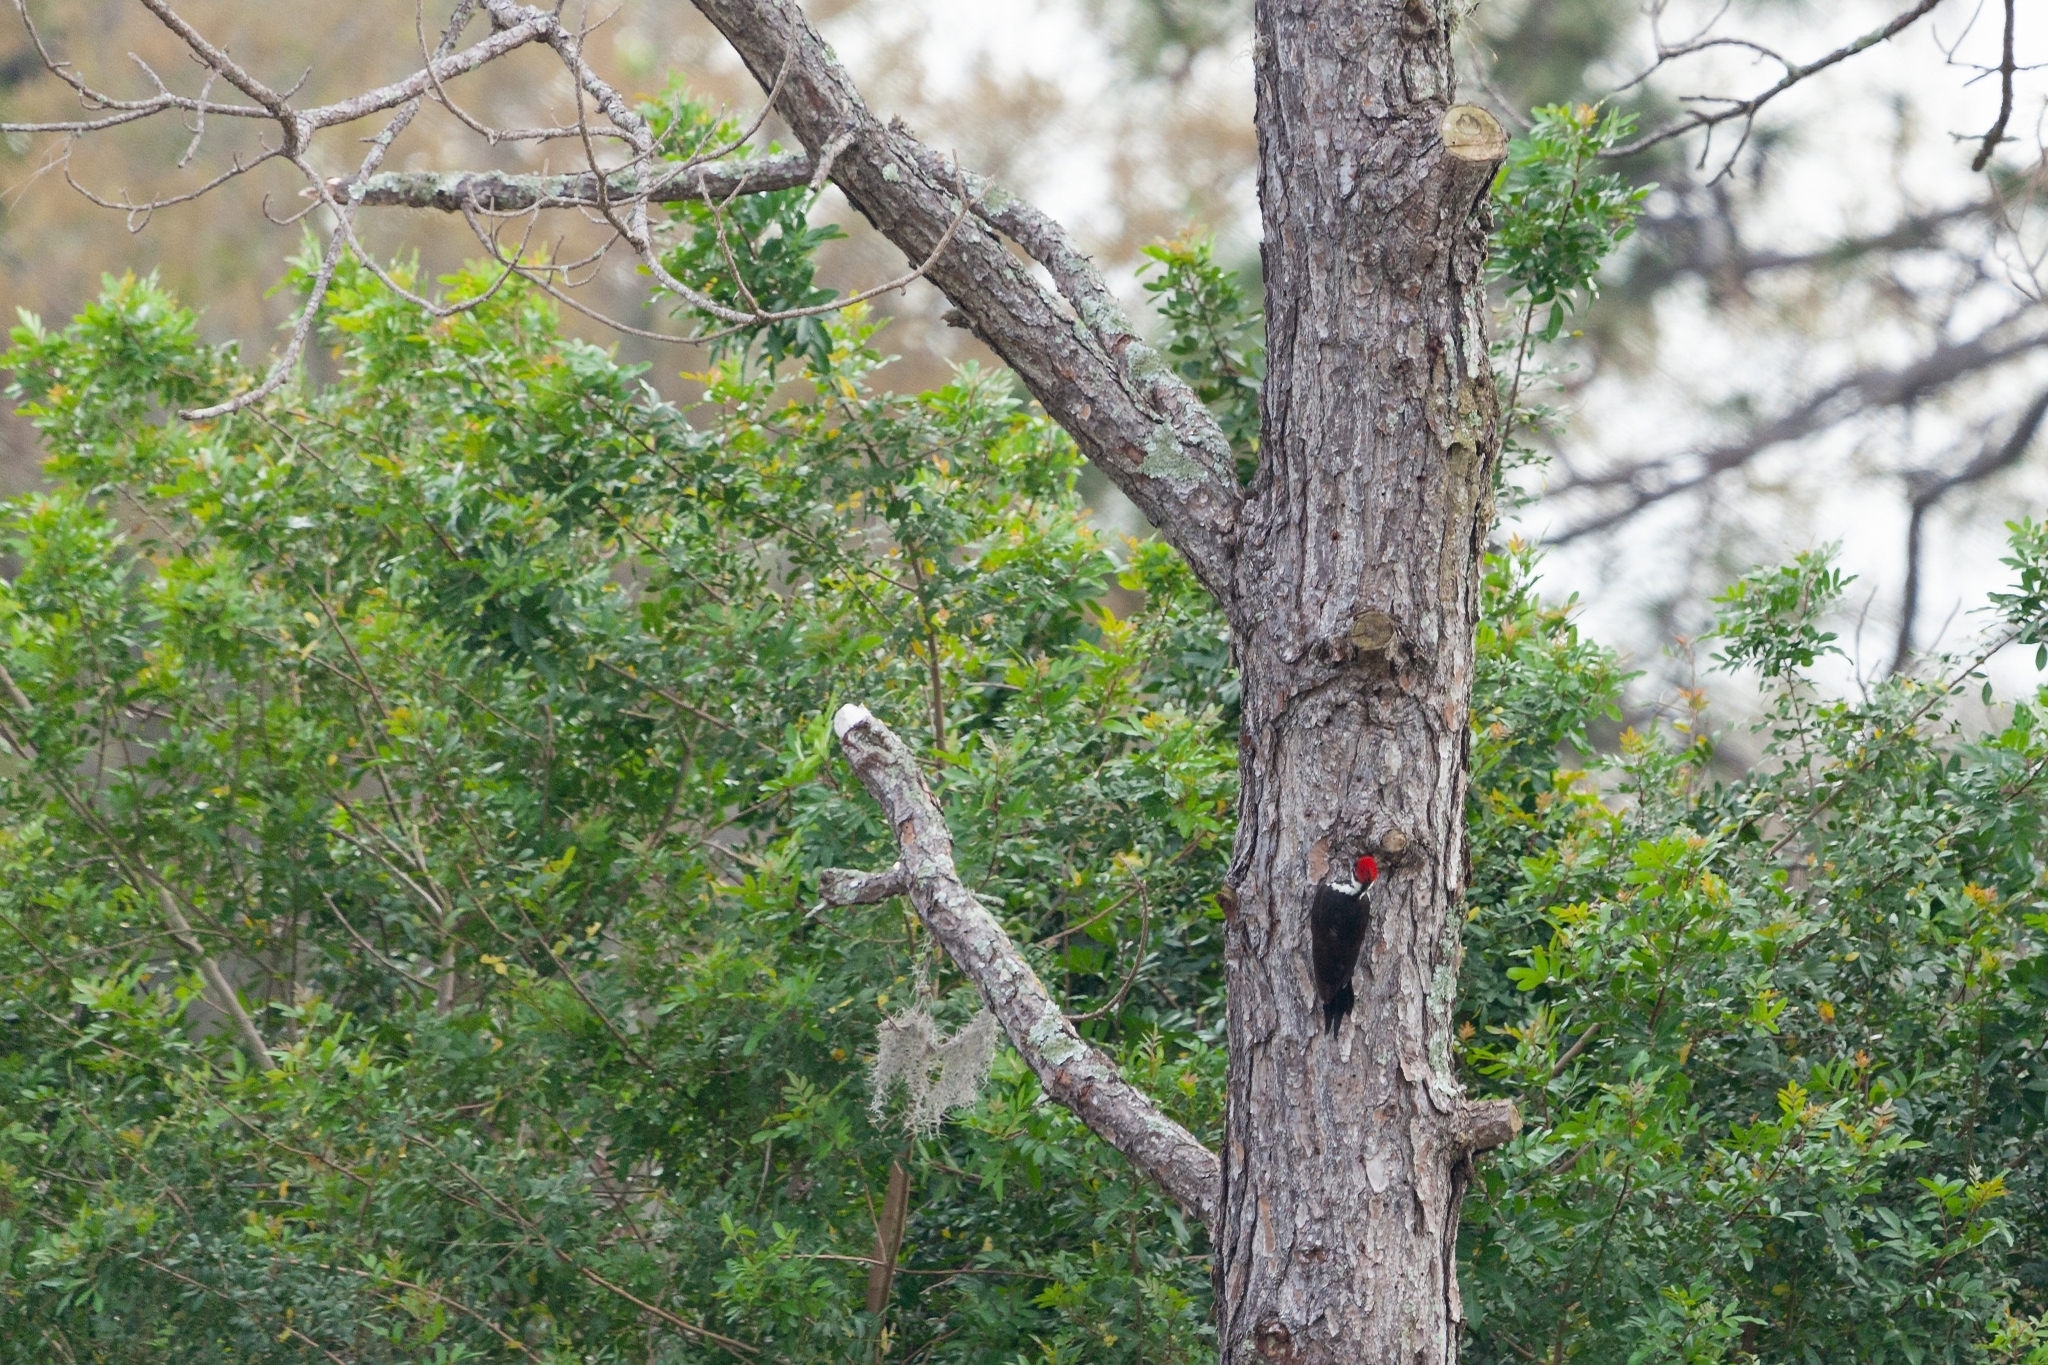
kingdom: Animalia
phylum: Chordata
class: Aves
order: Piciformes
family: Picidae
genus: Dryocopus
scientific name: Dryocopus pileatus
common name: Pileated woodpecker
